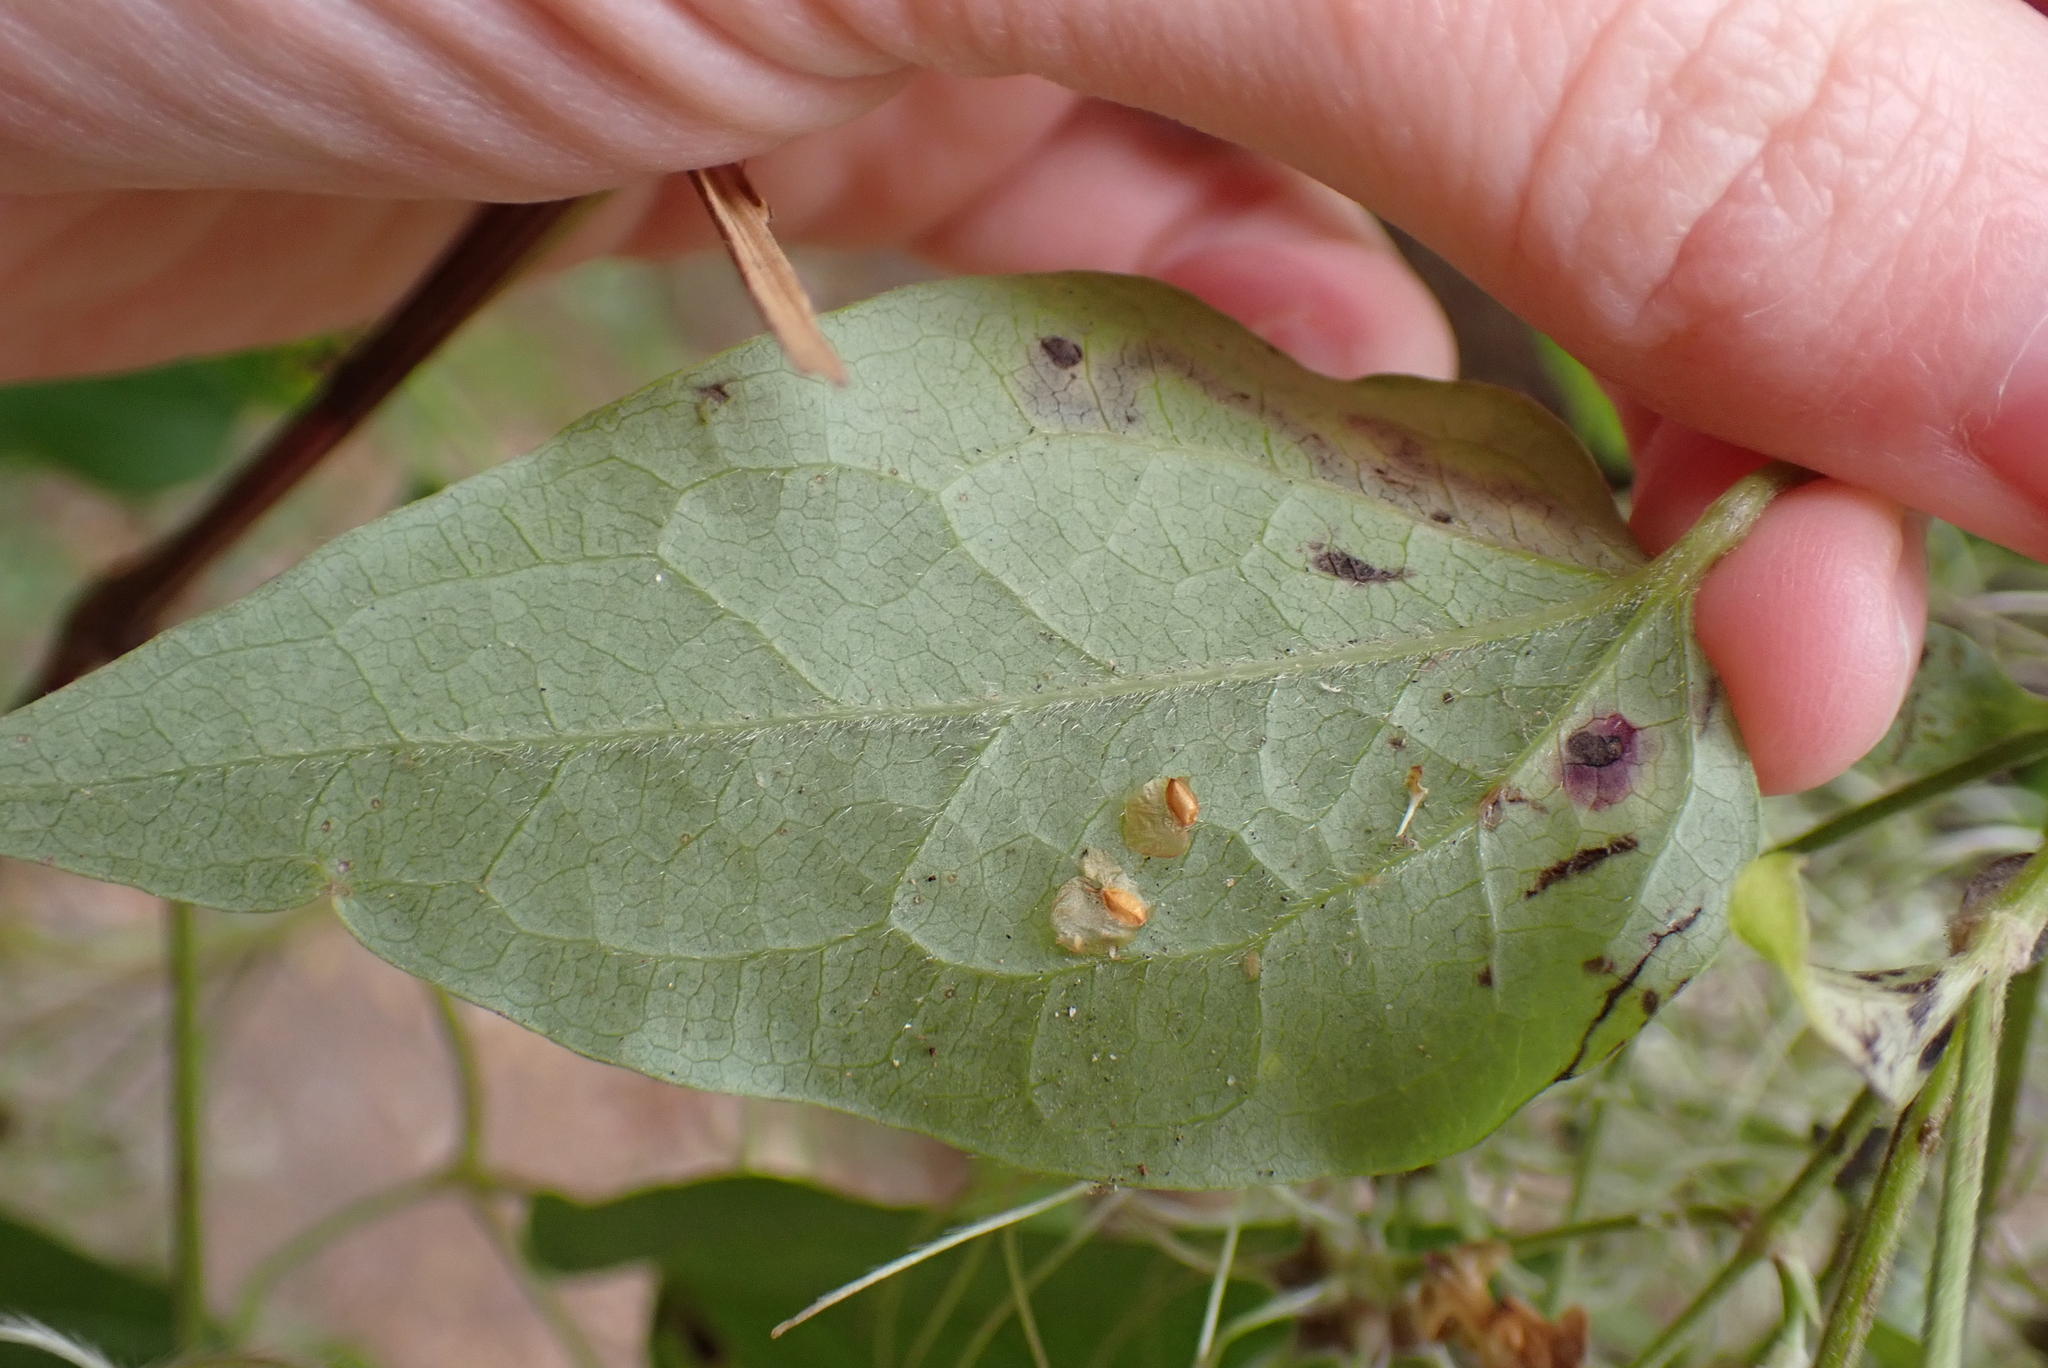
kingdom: Plantae
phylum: Tracheophyta
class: Magnoliopsida
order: Ranunculales
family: Ranunculaceae
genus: Clematis
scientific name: Clematis vitalba
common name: Evergreen clematis
